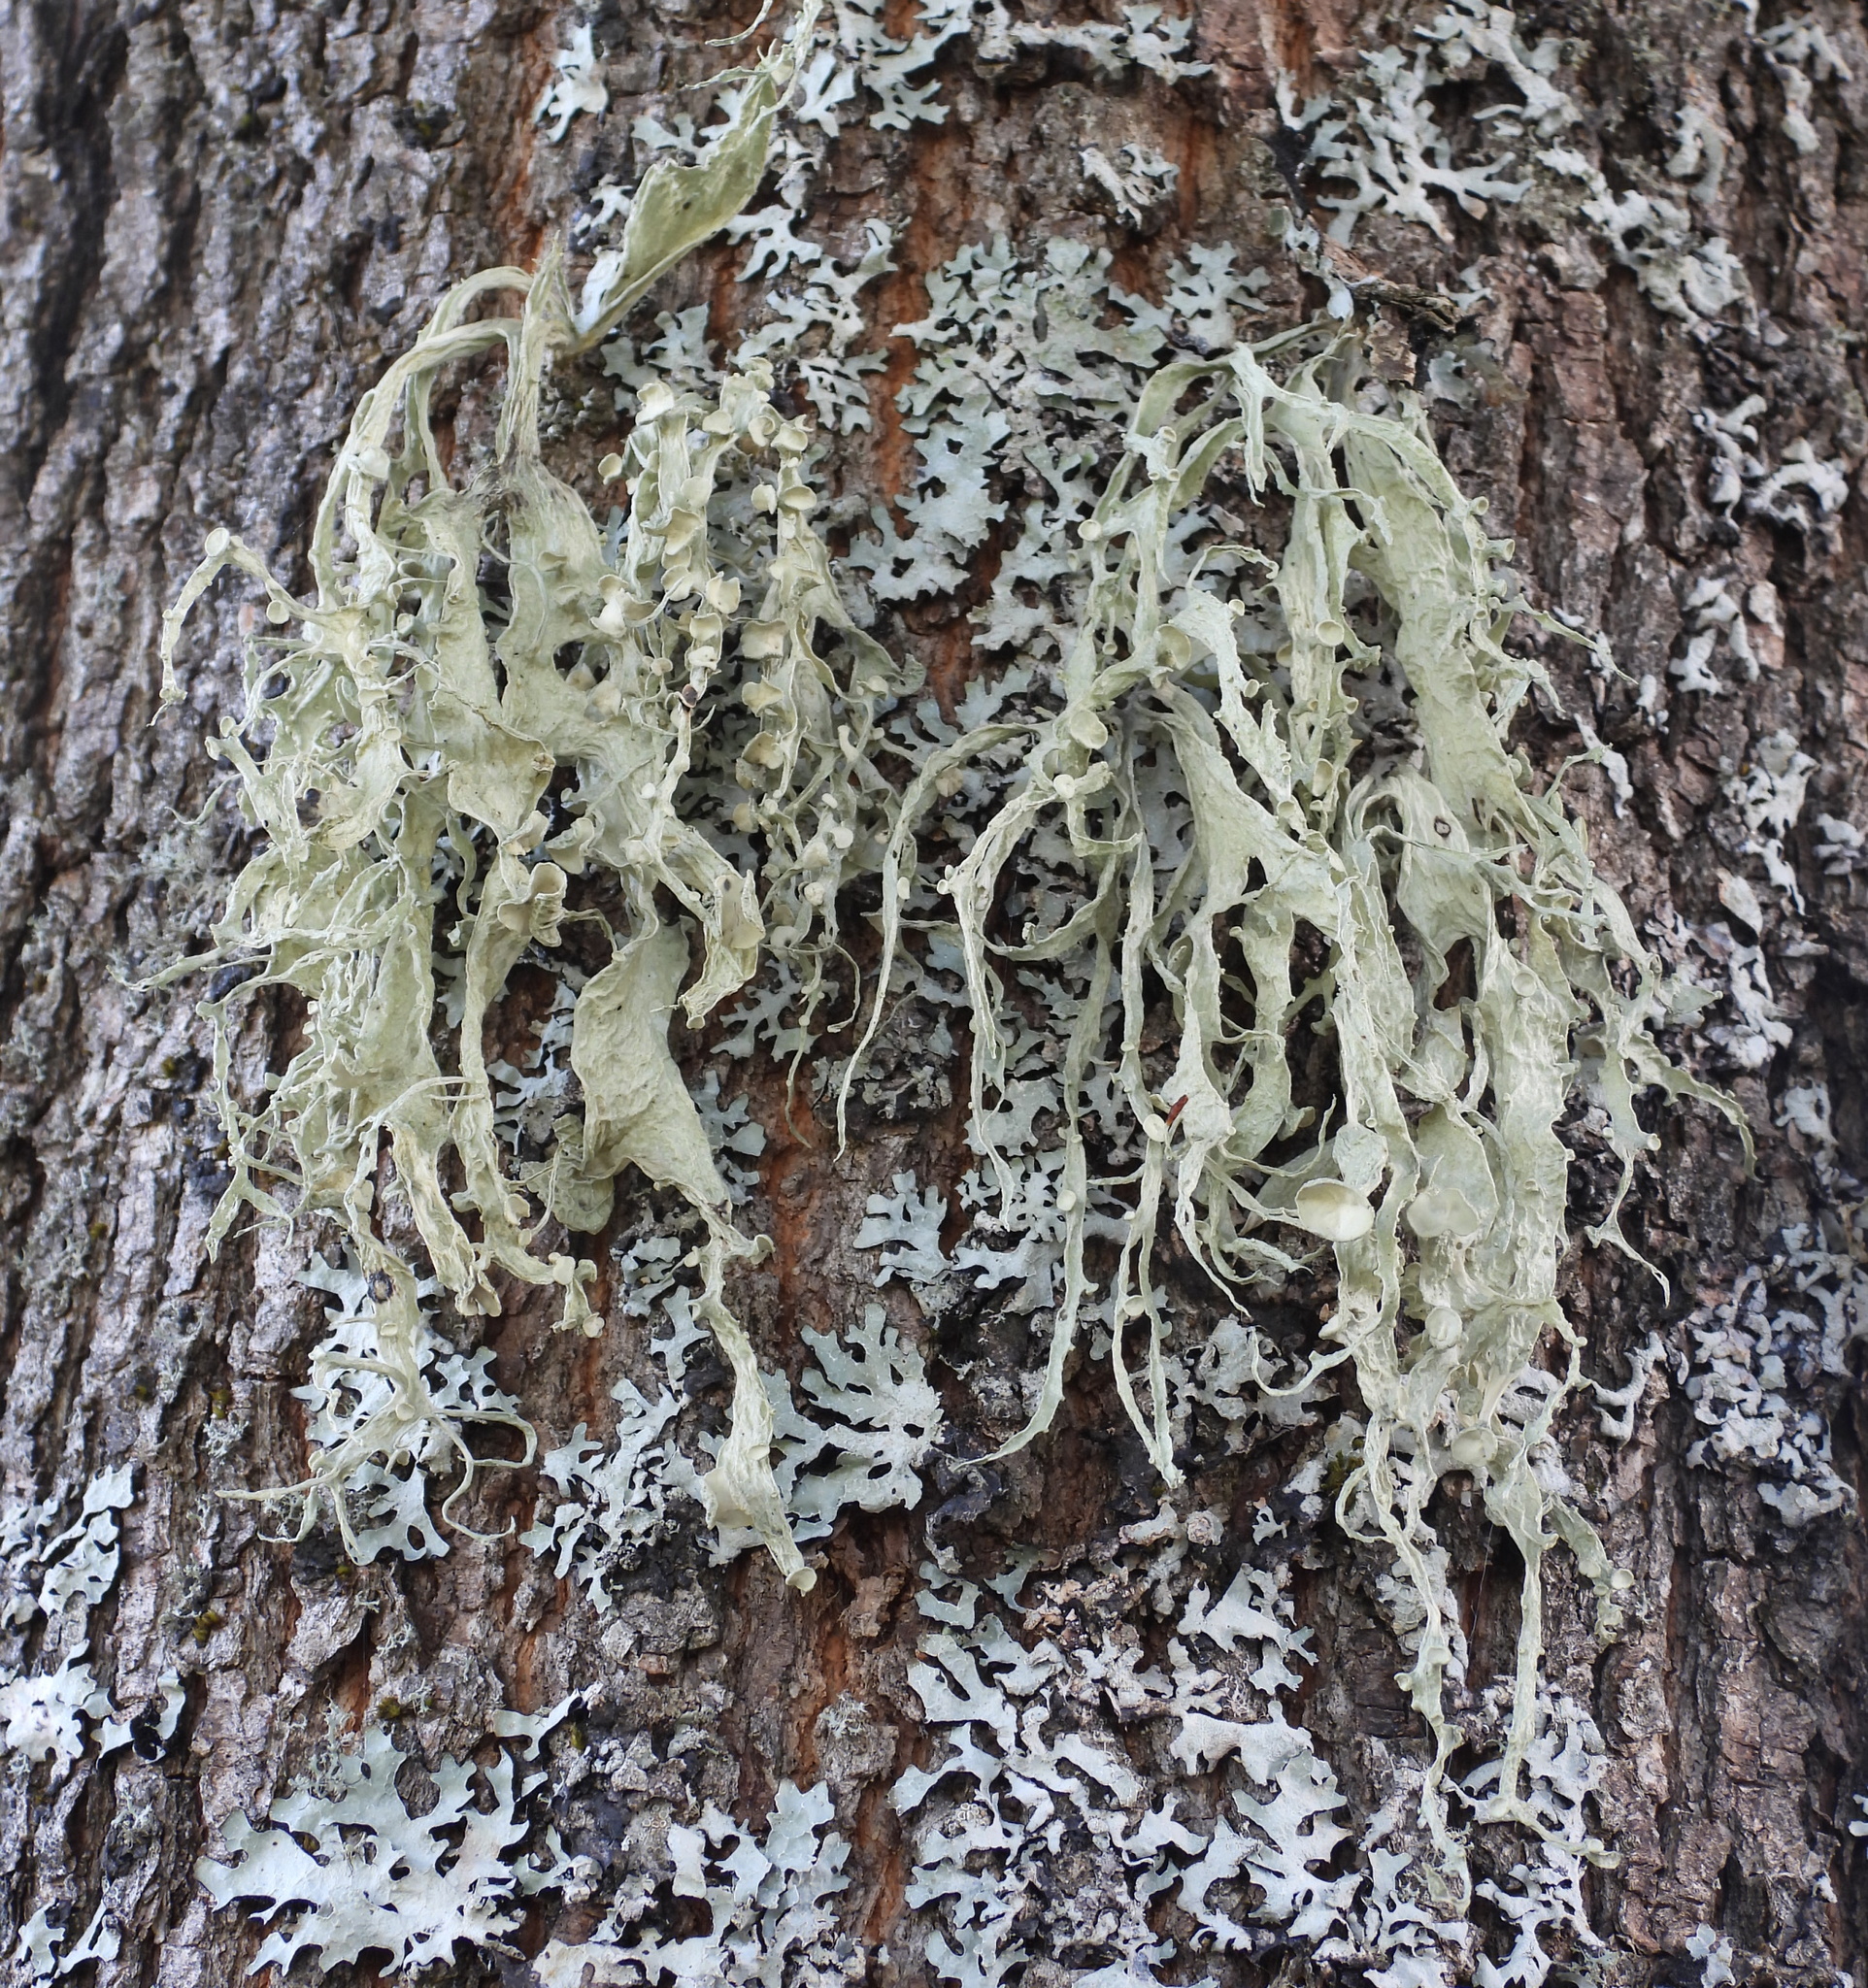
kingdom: Fungi
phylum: Ascomycota
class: Lecanoromycetes
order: Lecanorales
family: Ramalinaceae
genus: Ramalina
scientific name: Ramalina fraxinea
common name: Cartilage lichen
